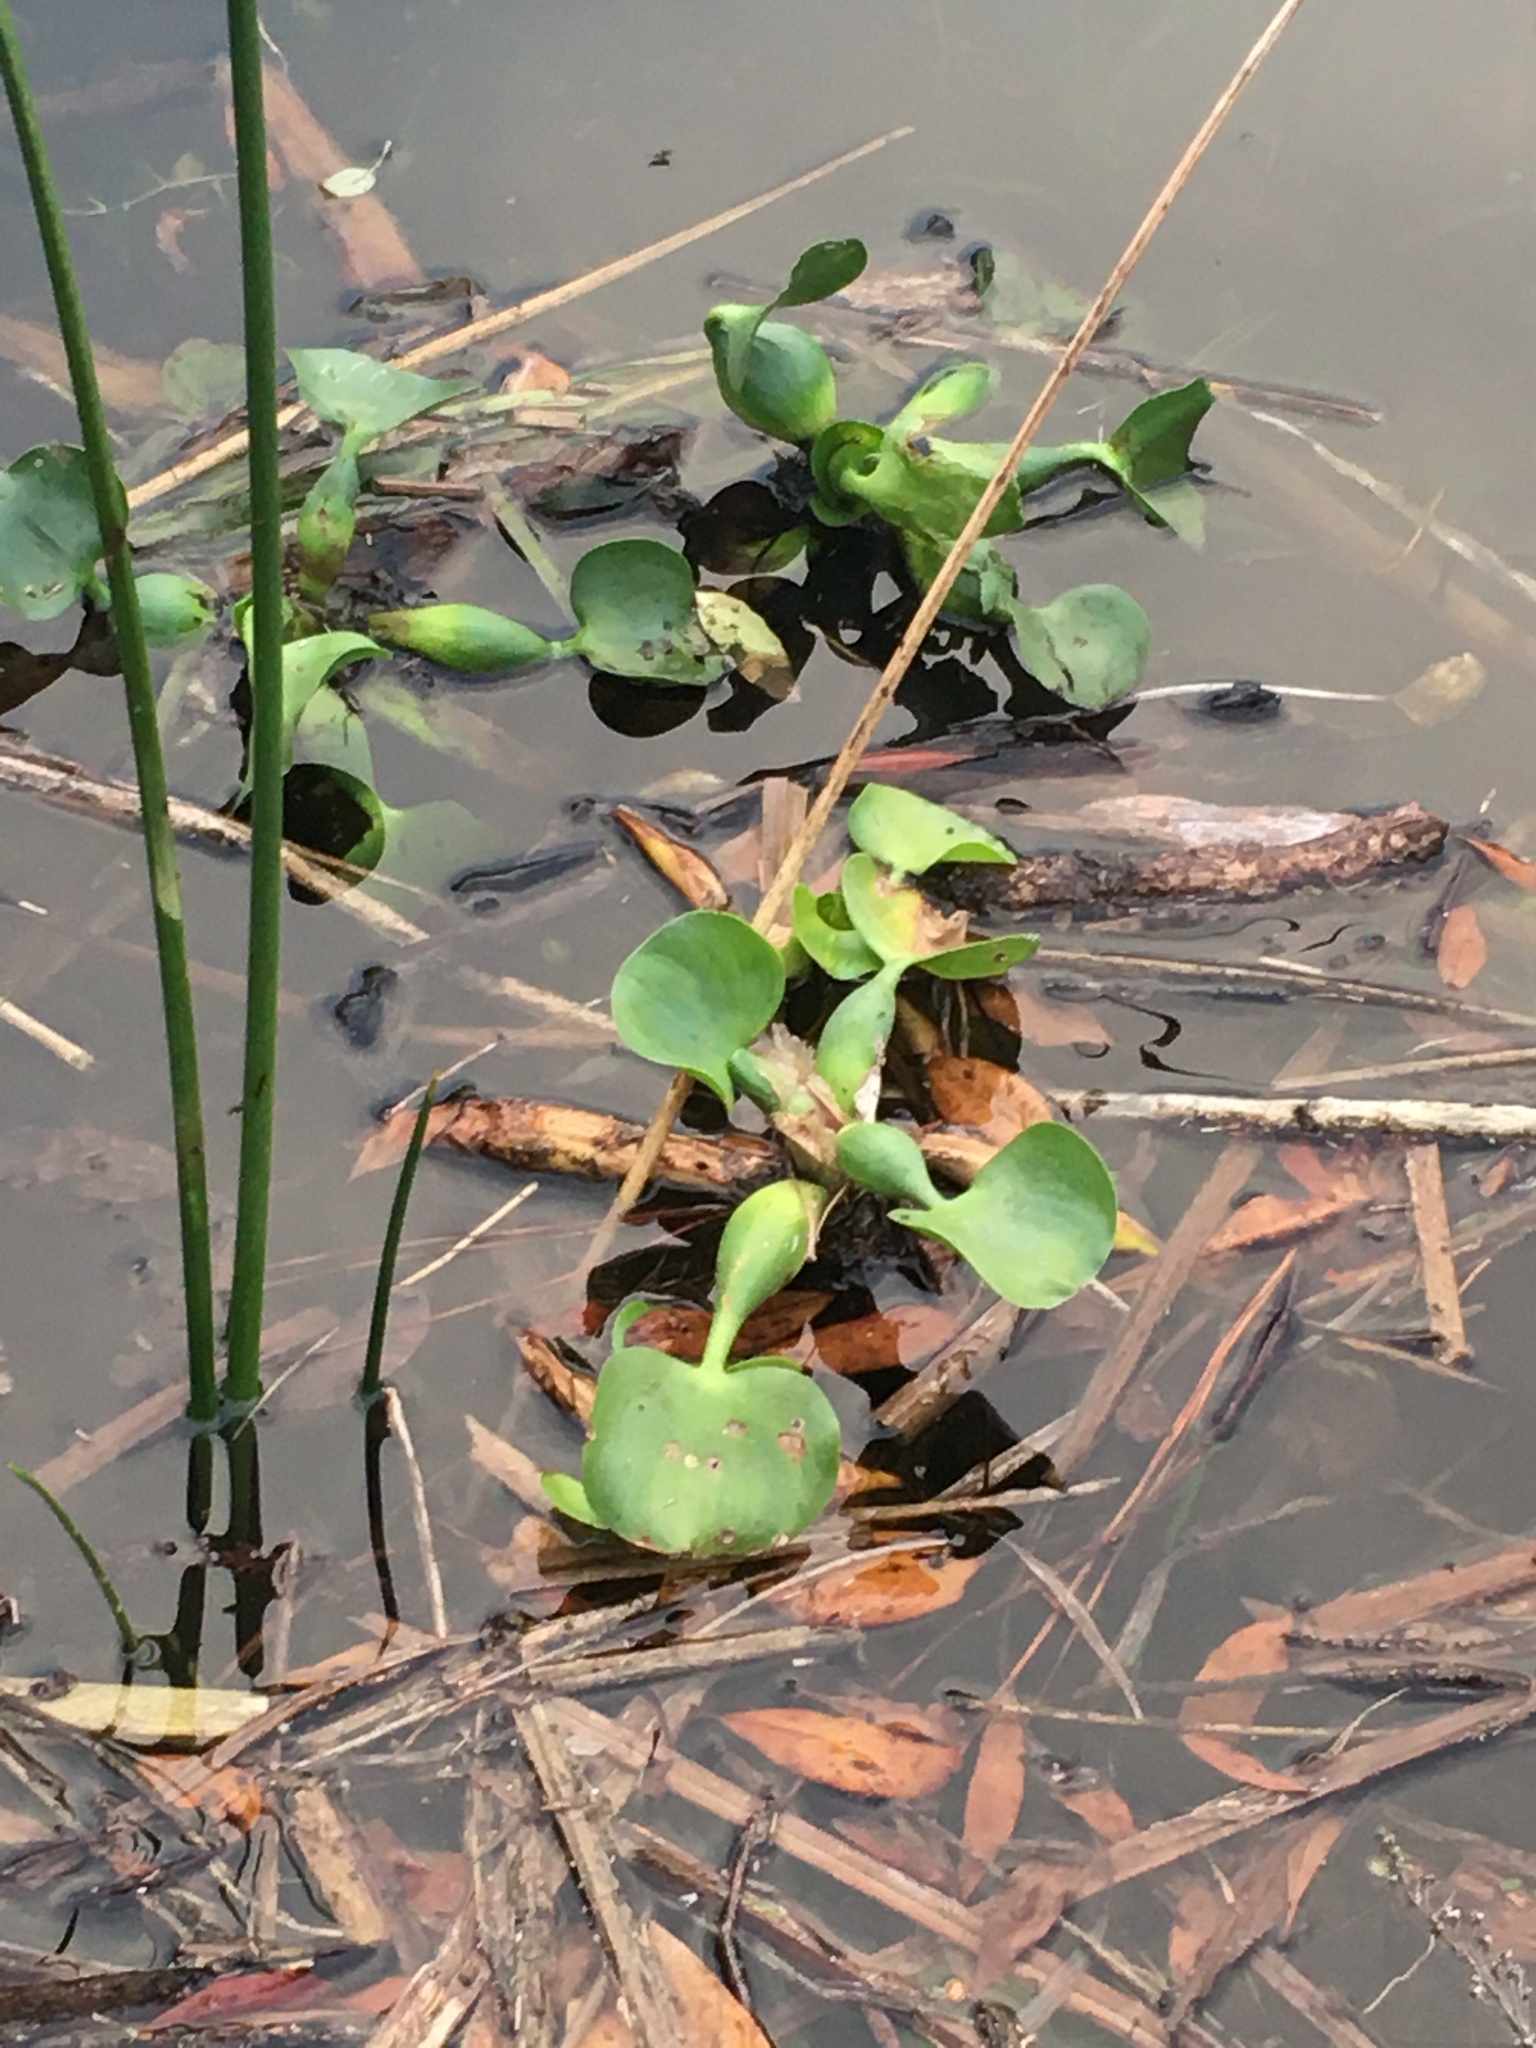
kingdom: Plantae
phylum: Tracheophyta
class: Liliopsida
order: Commelinales
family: Pontederiaceae
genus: Pontederia
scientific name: Pontederia crassipes
